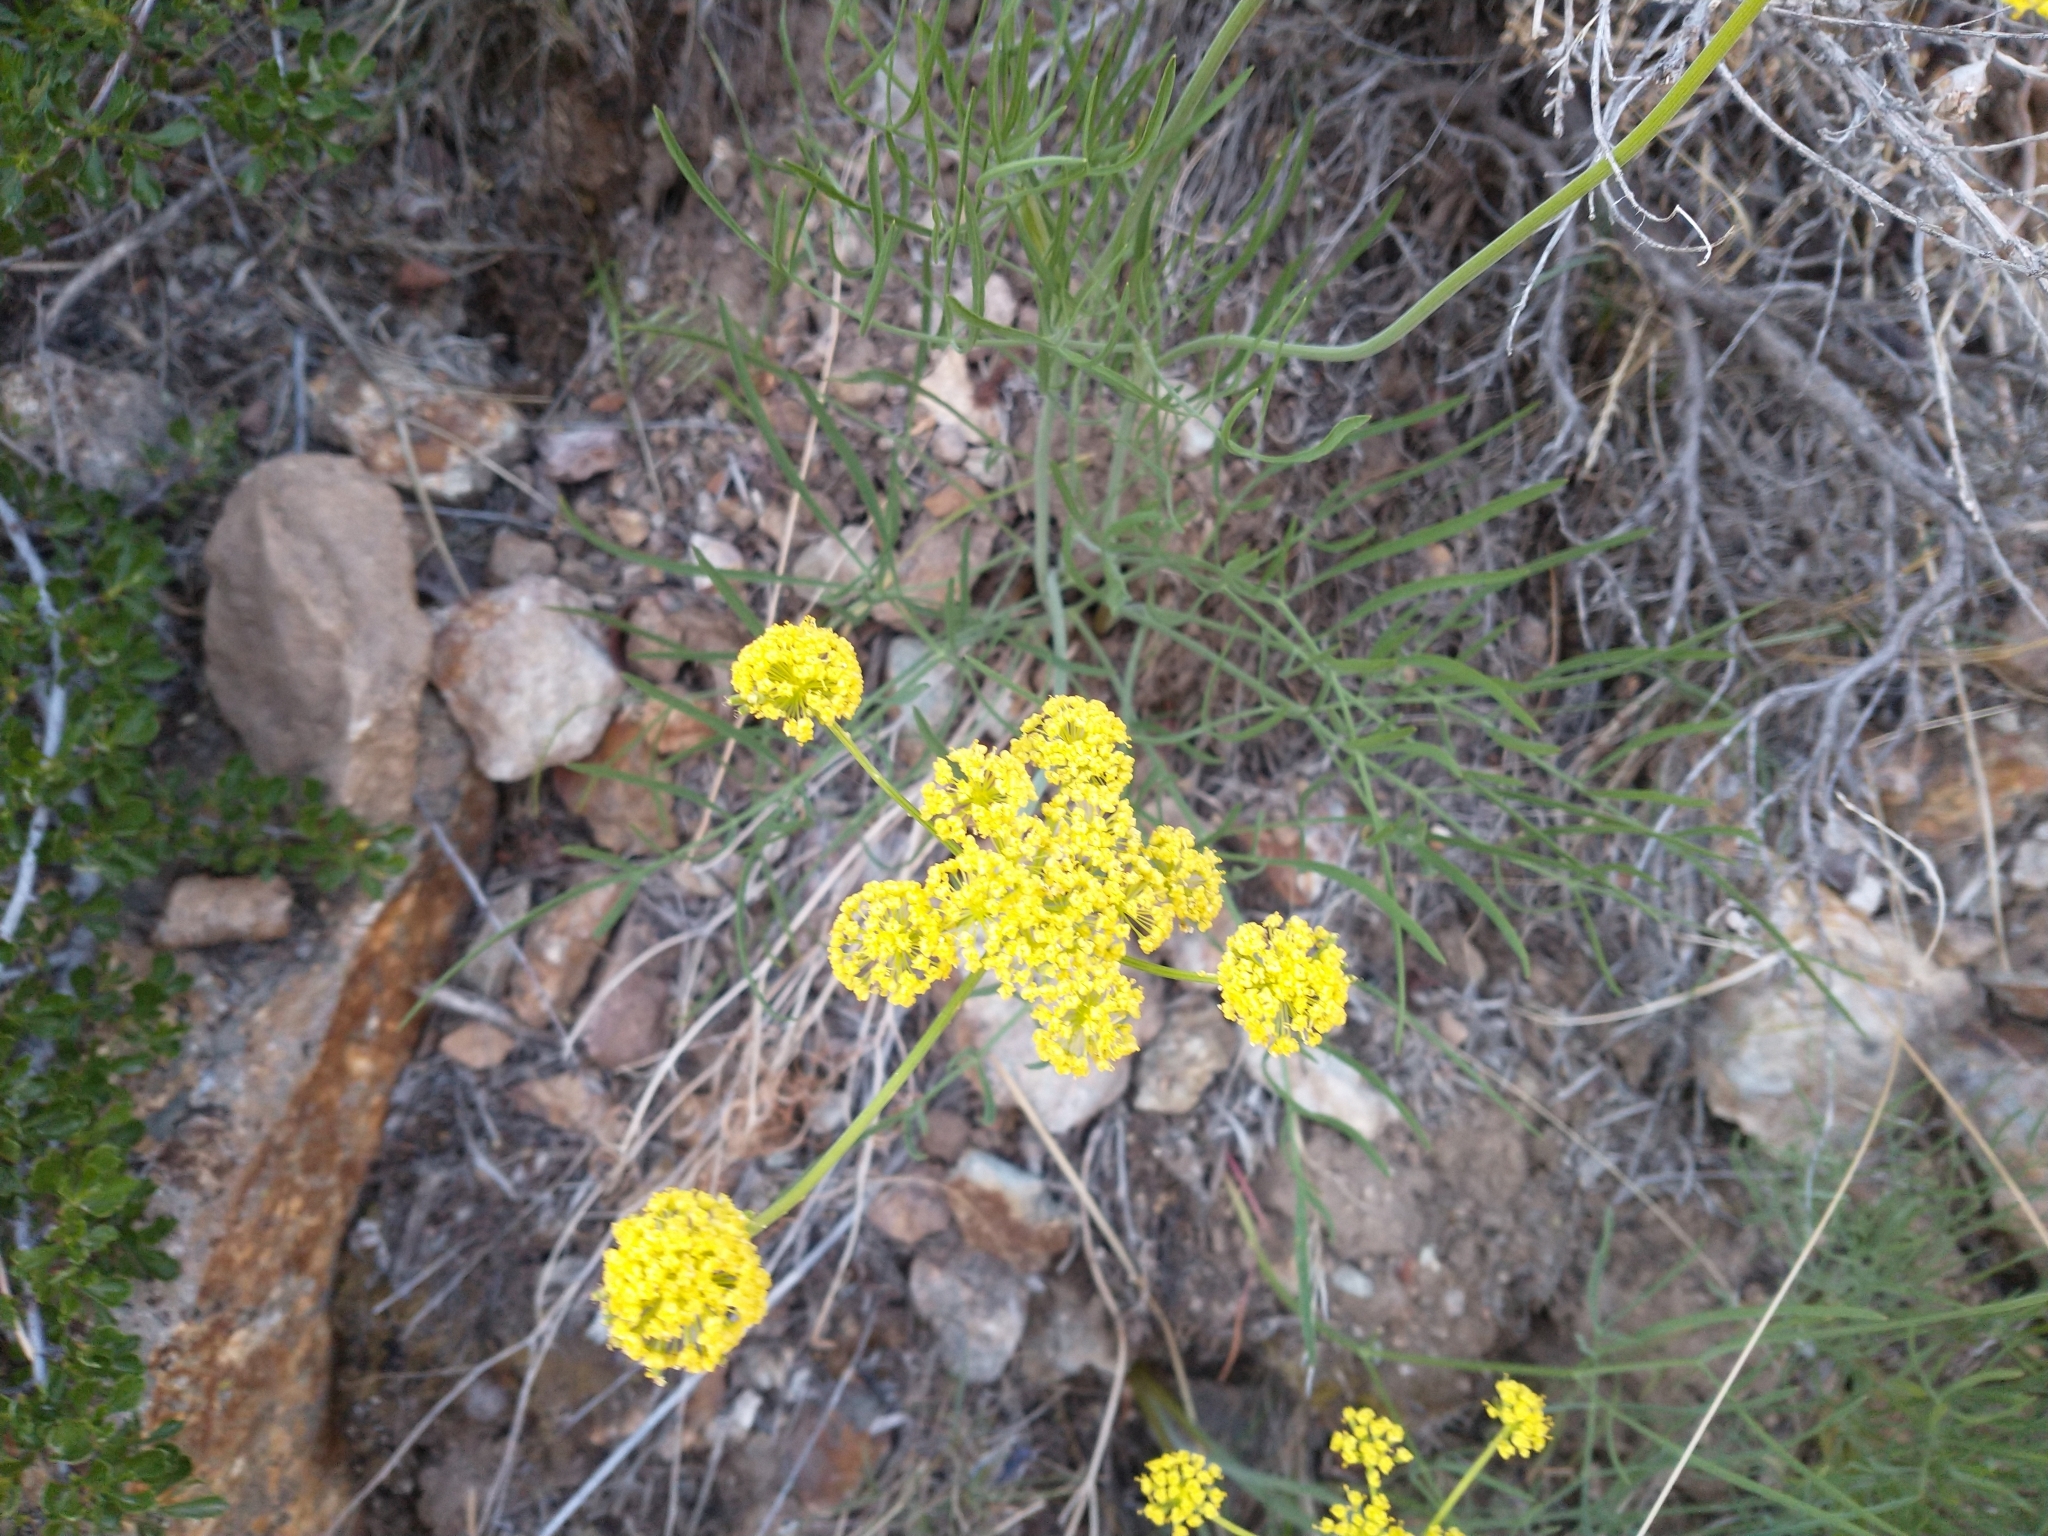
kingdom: Plantae
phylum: Tracheophyta
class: Magnoliopsida
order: Apiales
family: Apiaceae
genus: Lomatium
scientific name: Lomatium triternatum
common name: Ternate lomatium
